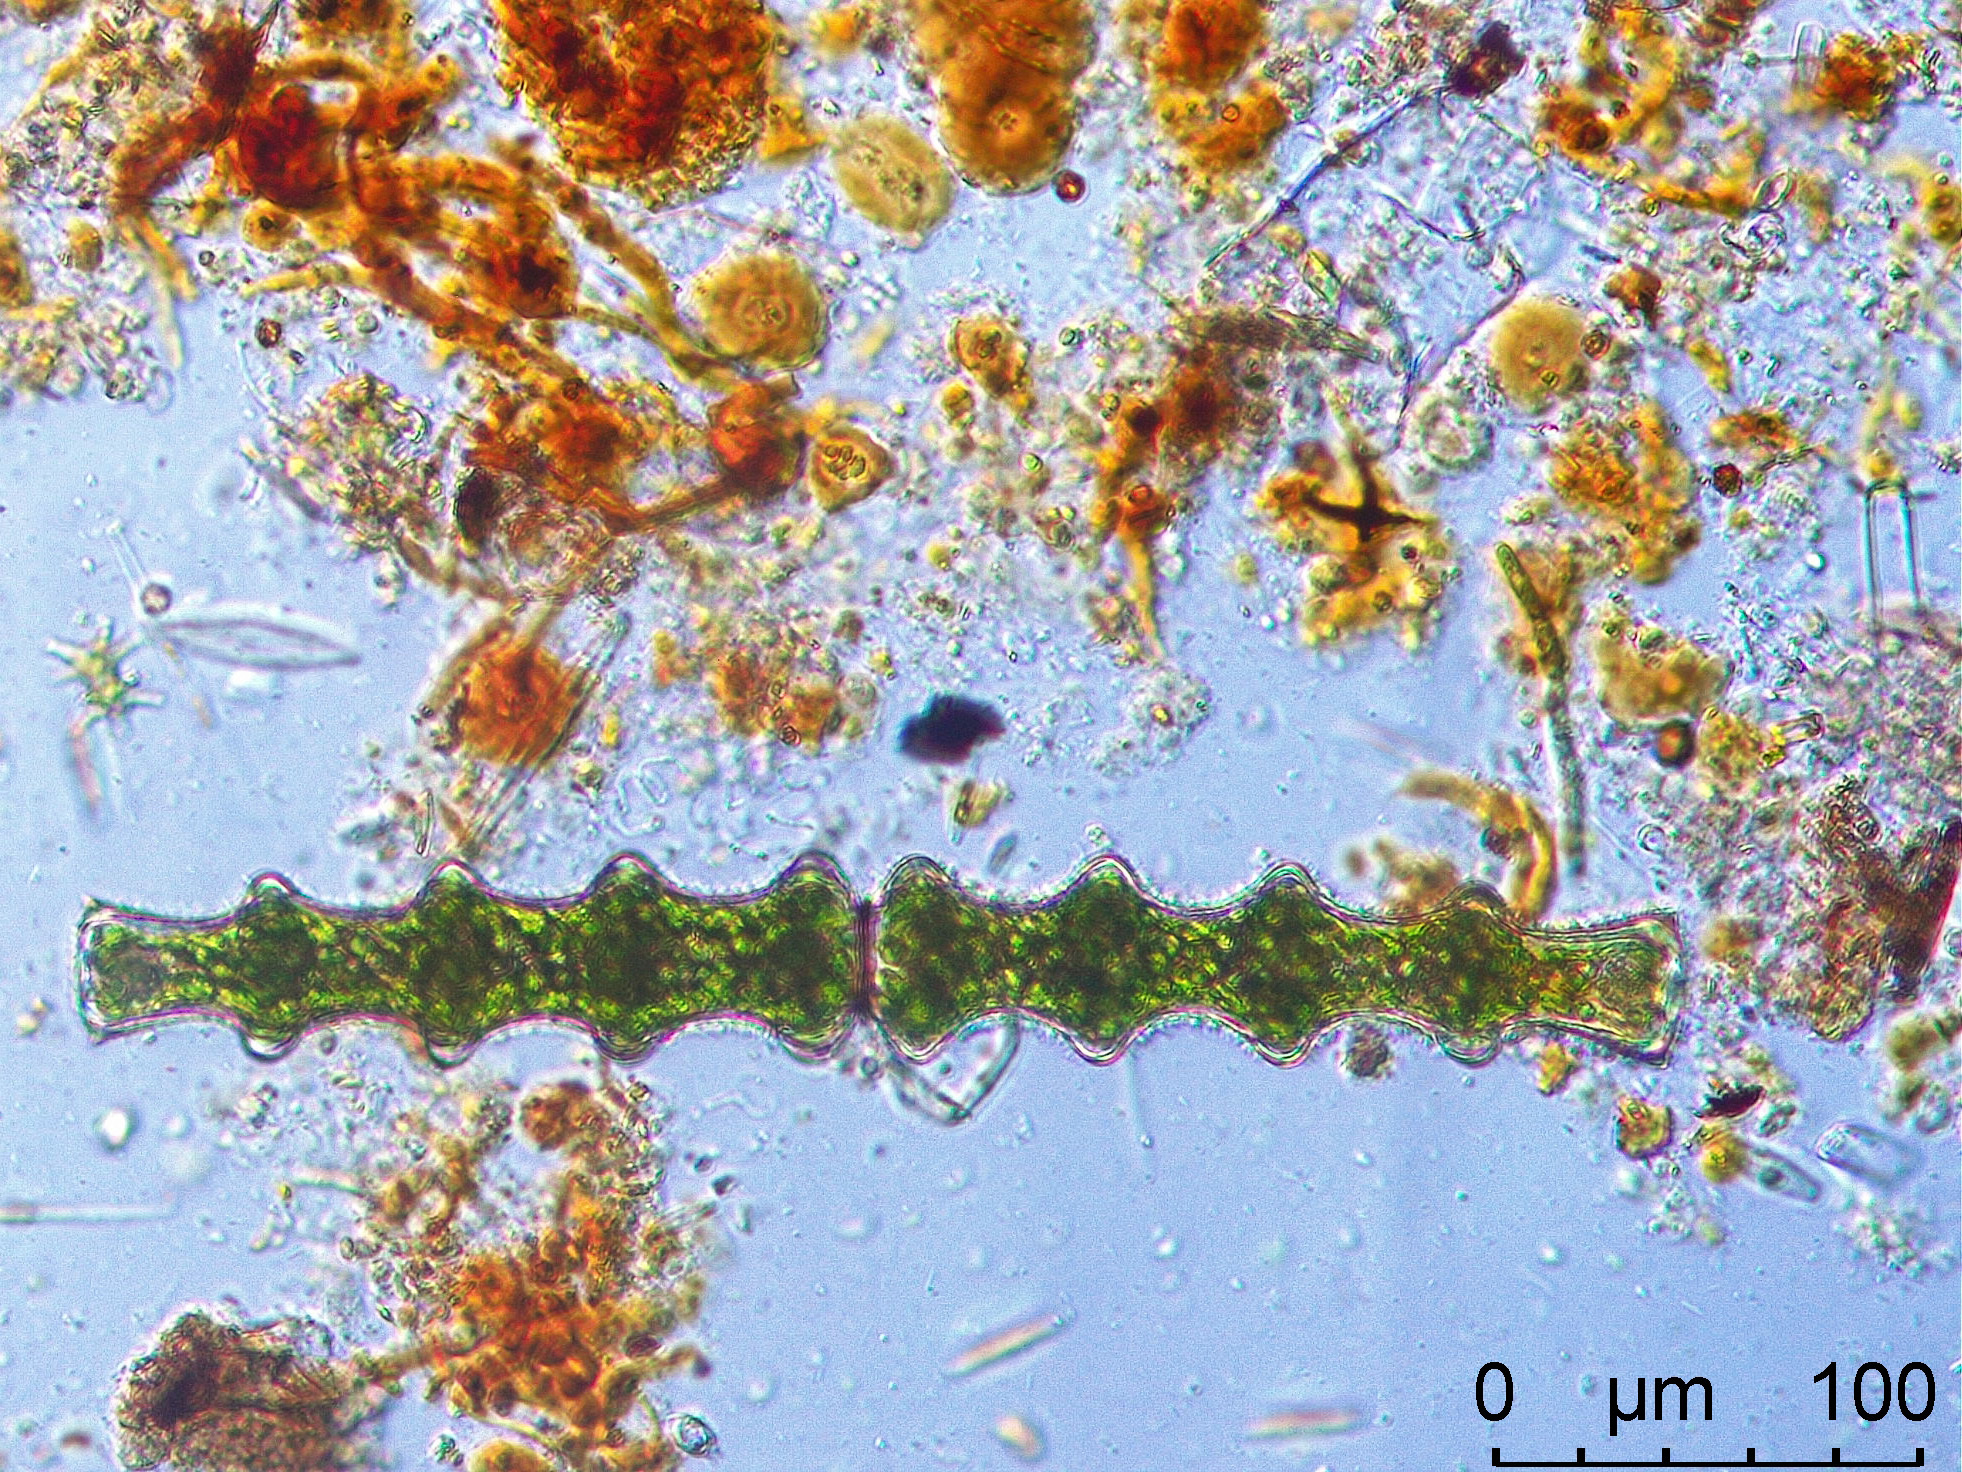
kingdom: Plantae
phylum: Charophyta
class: Conjugatophyceae
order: Desmidiales
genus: Pleurotaenium
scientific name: Pleurotaenium nodosum
